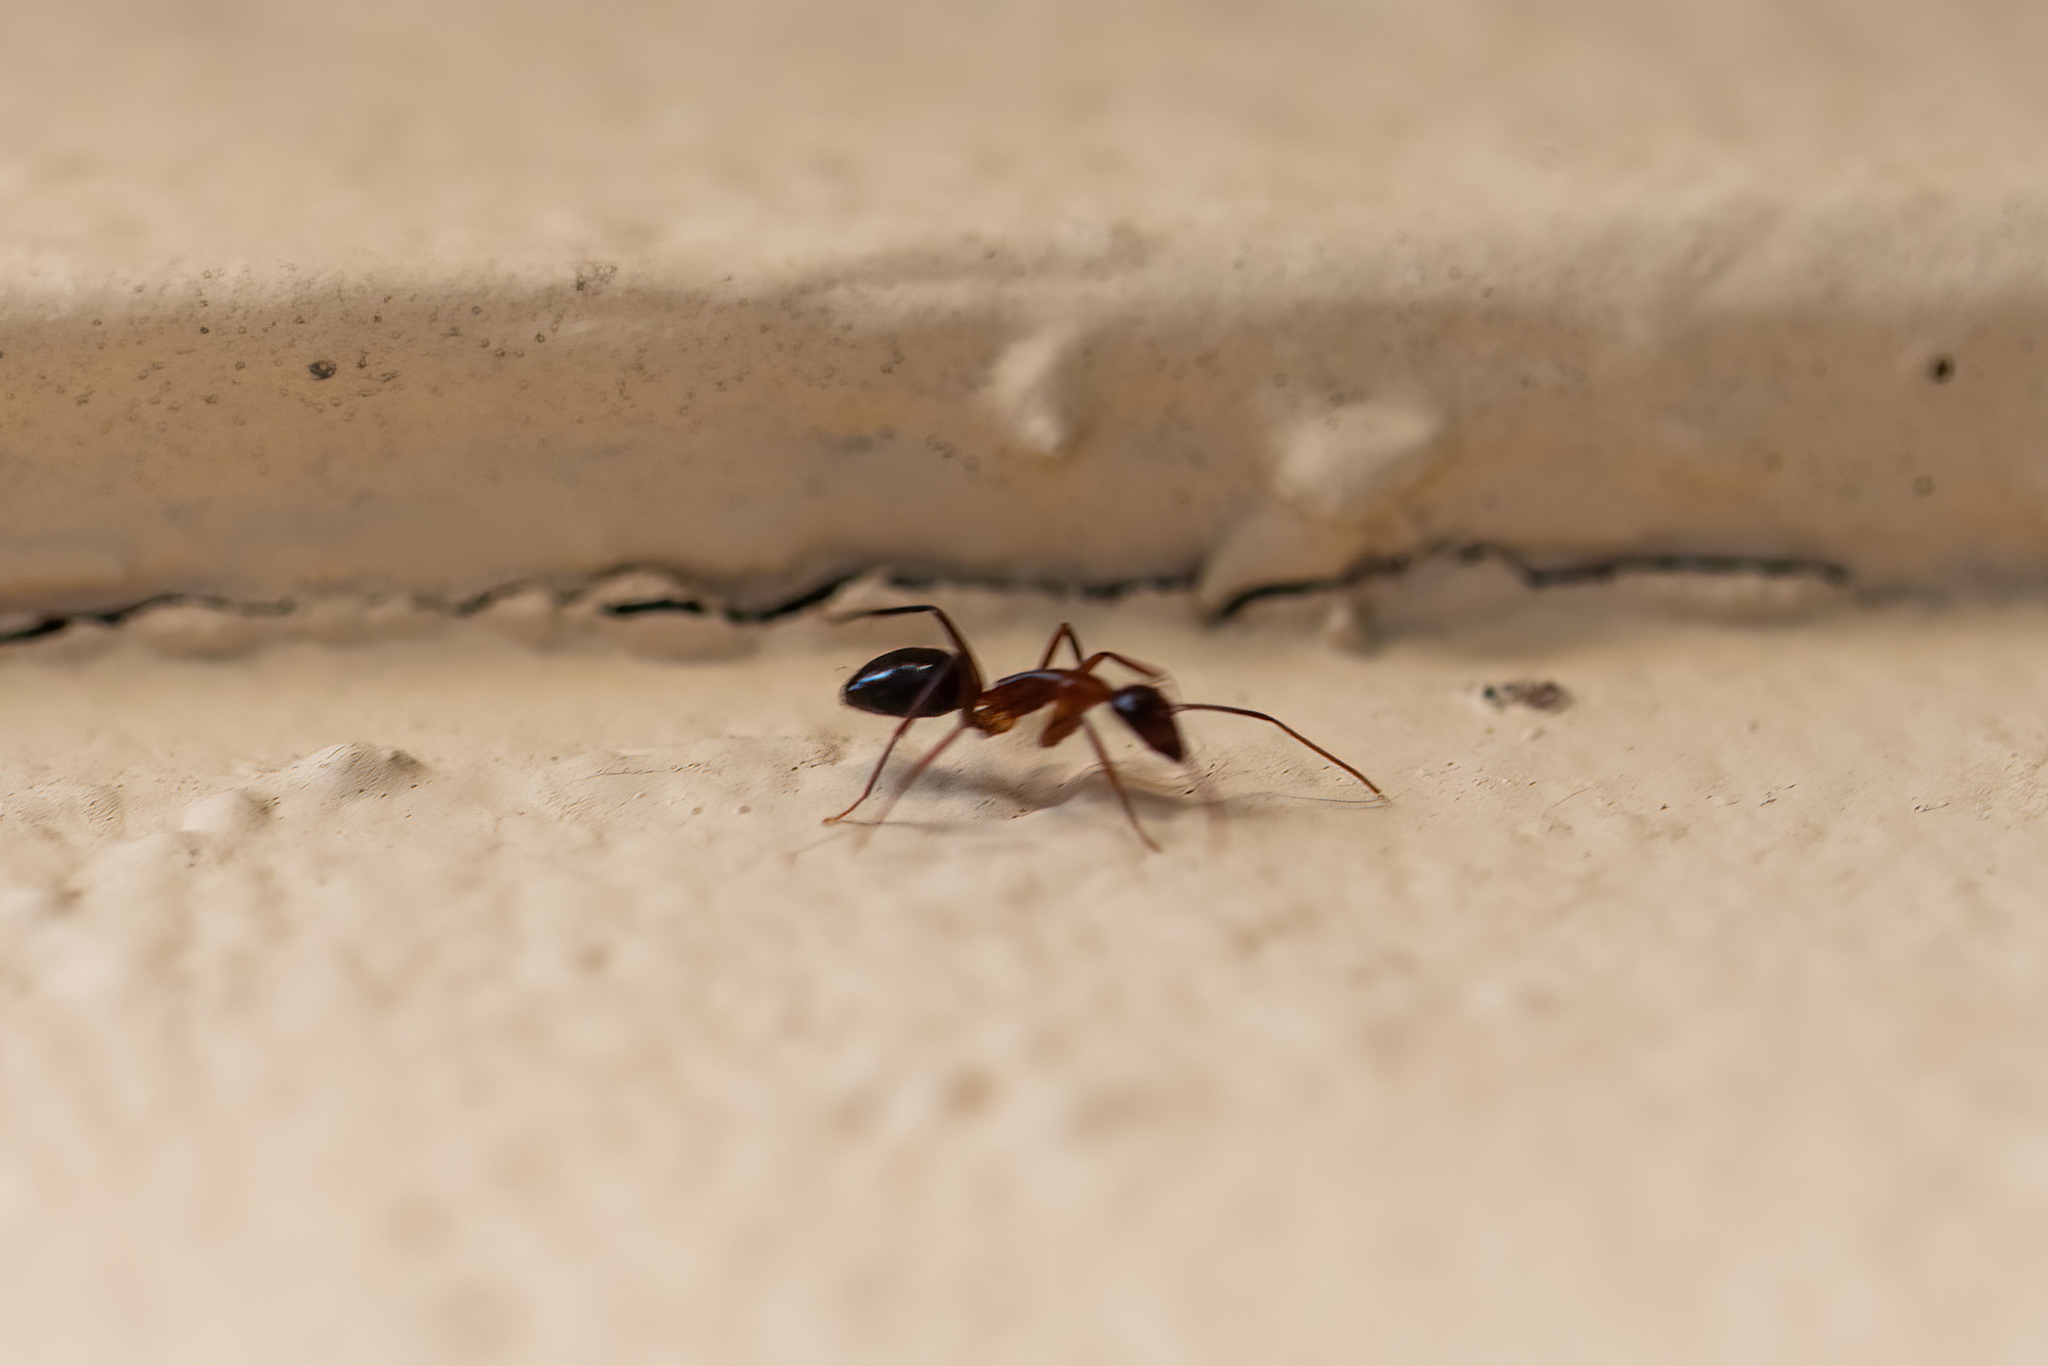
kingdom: Animalia
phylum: Arthropoda
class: Insecta
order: Hymenoptera
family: Formicidae
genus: Camponotus
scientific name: Camponotus inaequalis
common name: Ant
